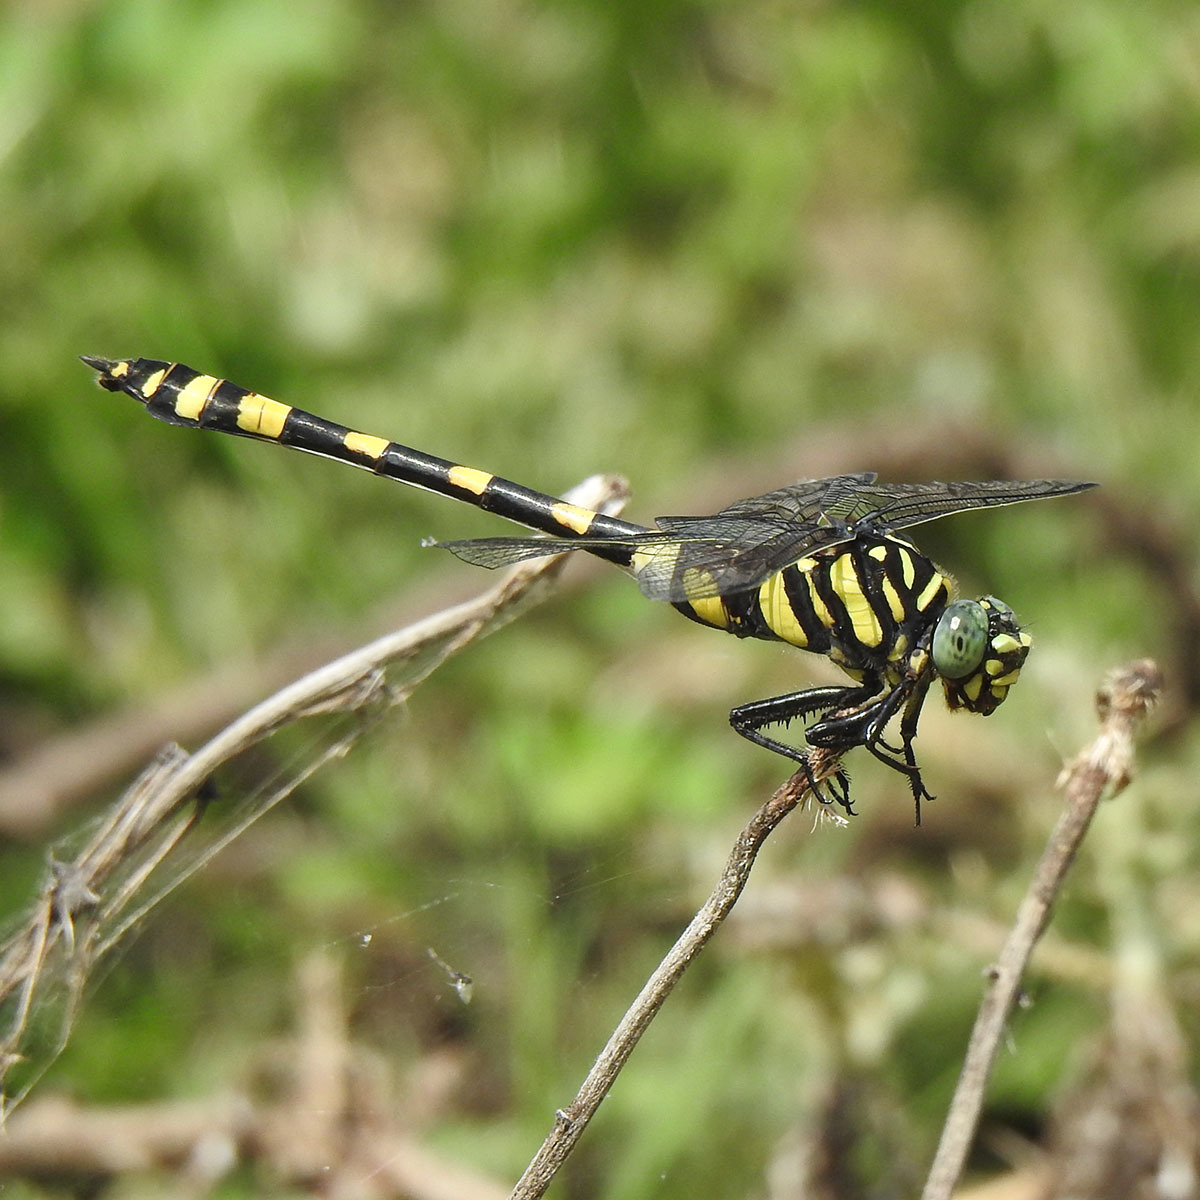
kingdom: Animalia
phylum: Arthropoda
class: Insecta
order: Odonata
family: Gomphidae
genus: Ictinogomphus
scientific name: Ictinogomphus rapax
